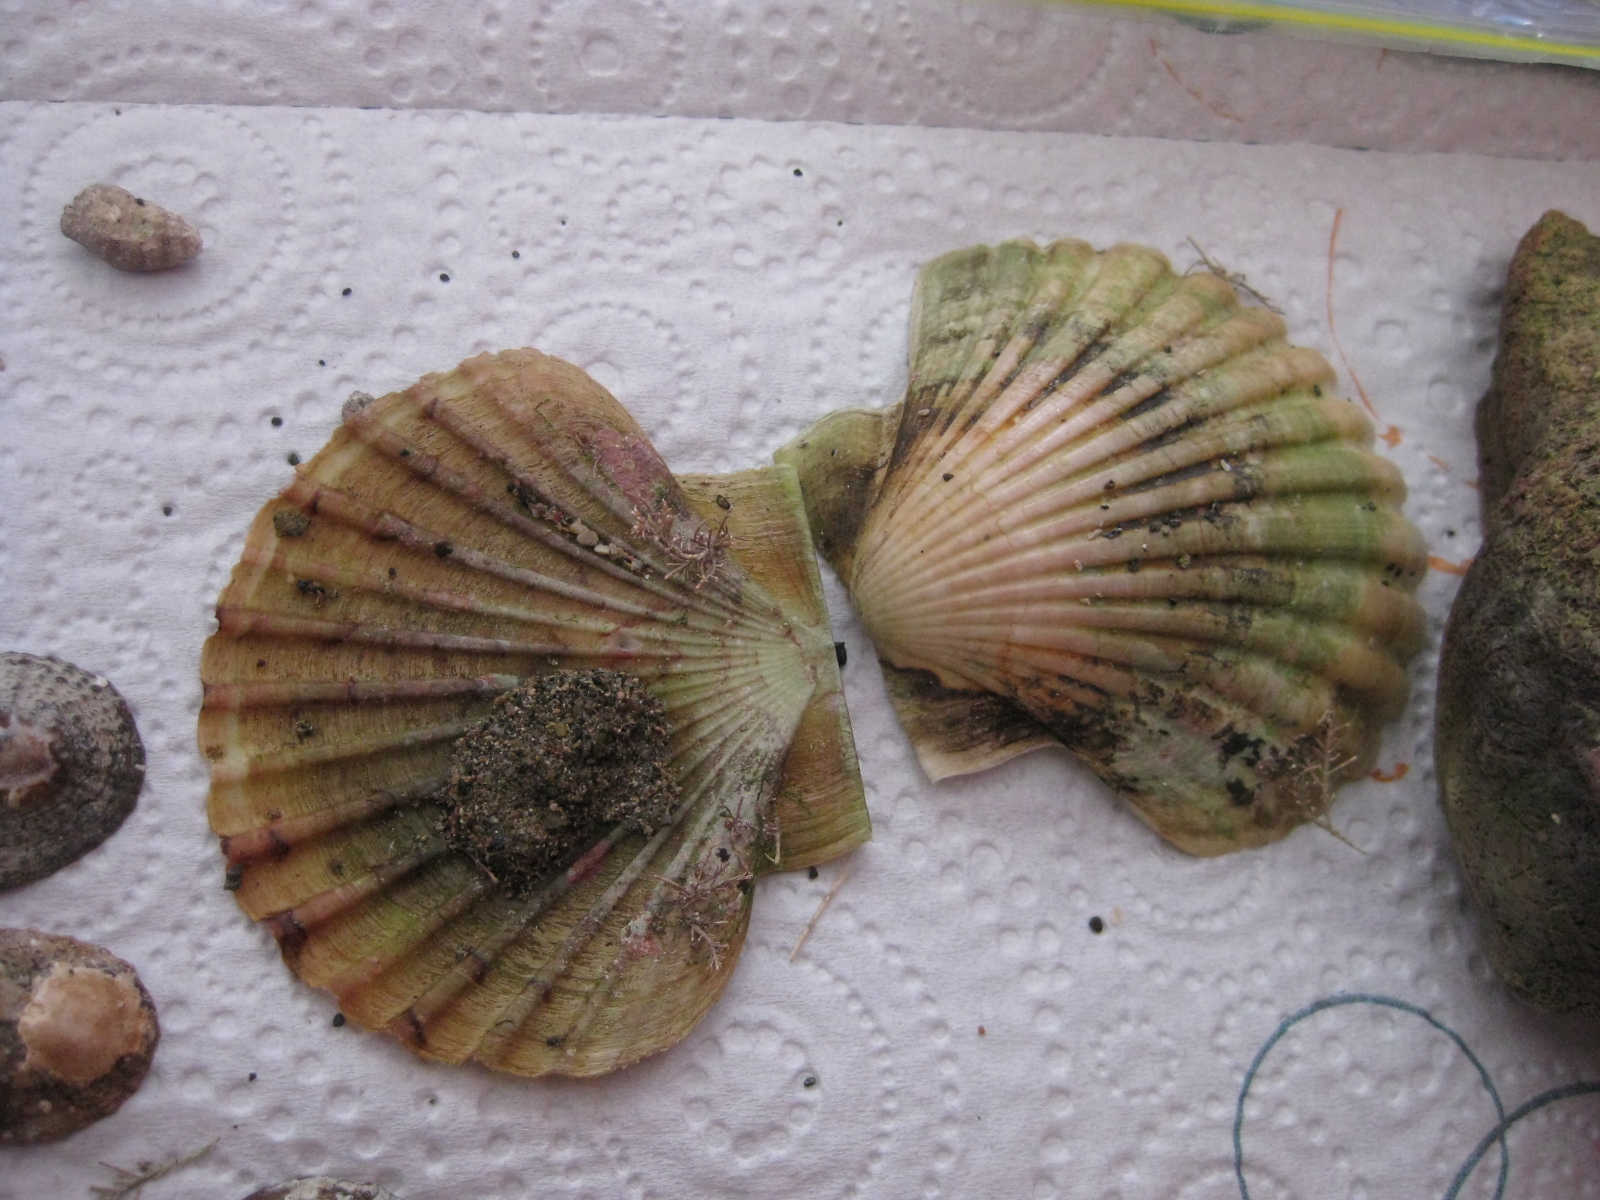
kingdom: Animalia
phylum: Mollusca
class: Bivalvia
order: Pectinida
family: Pectinidae
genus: Pecten
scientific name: Pecten novaezelandiae
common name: New zealand scallop
